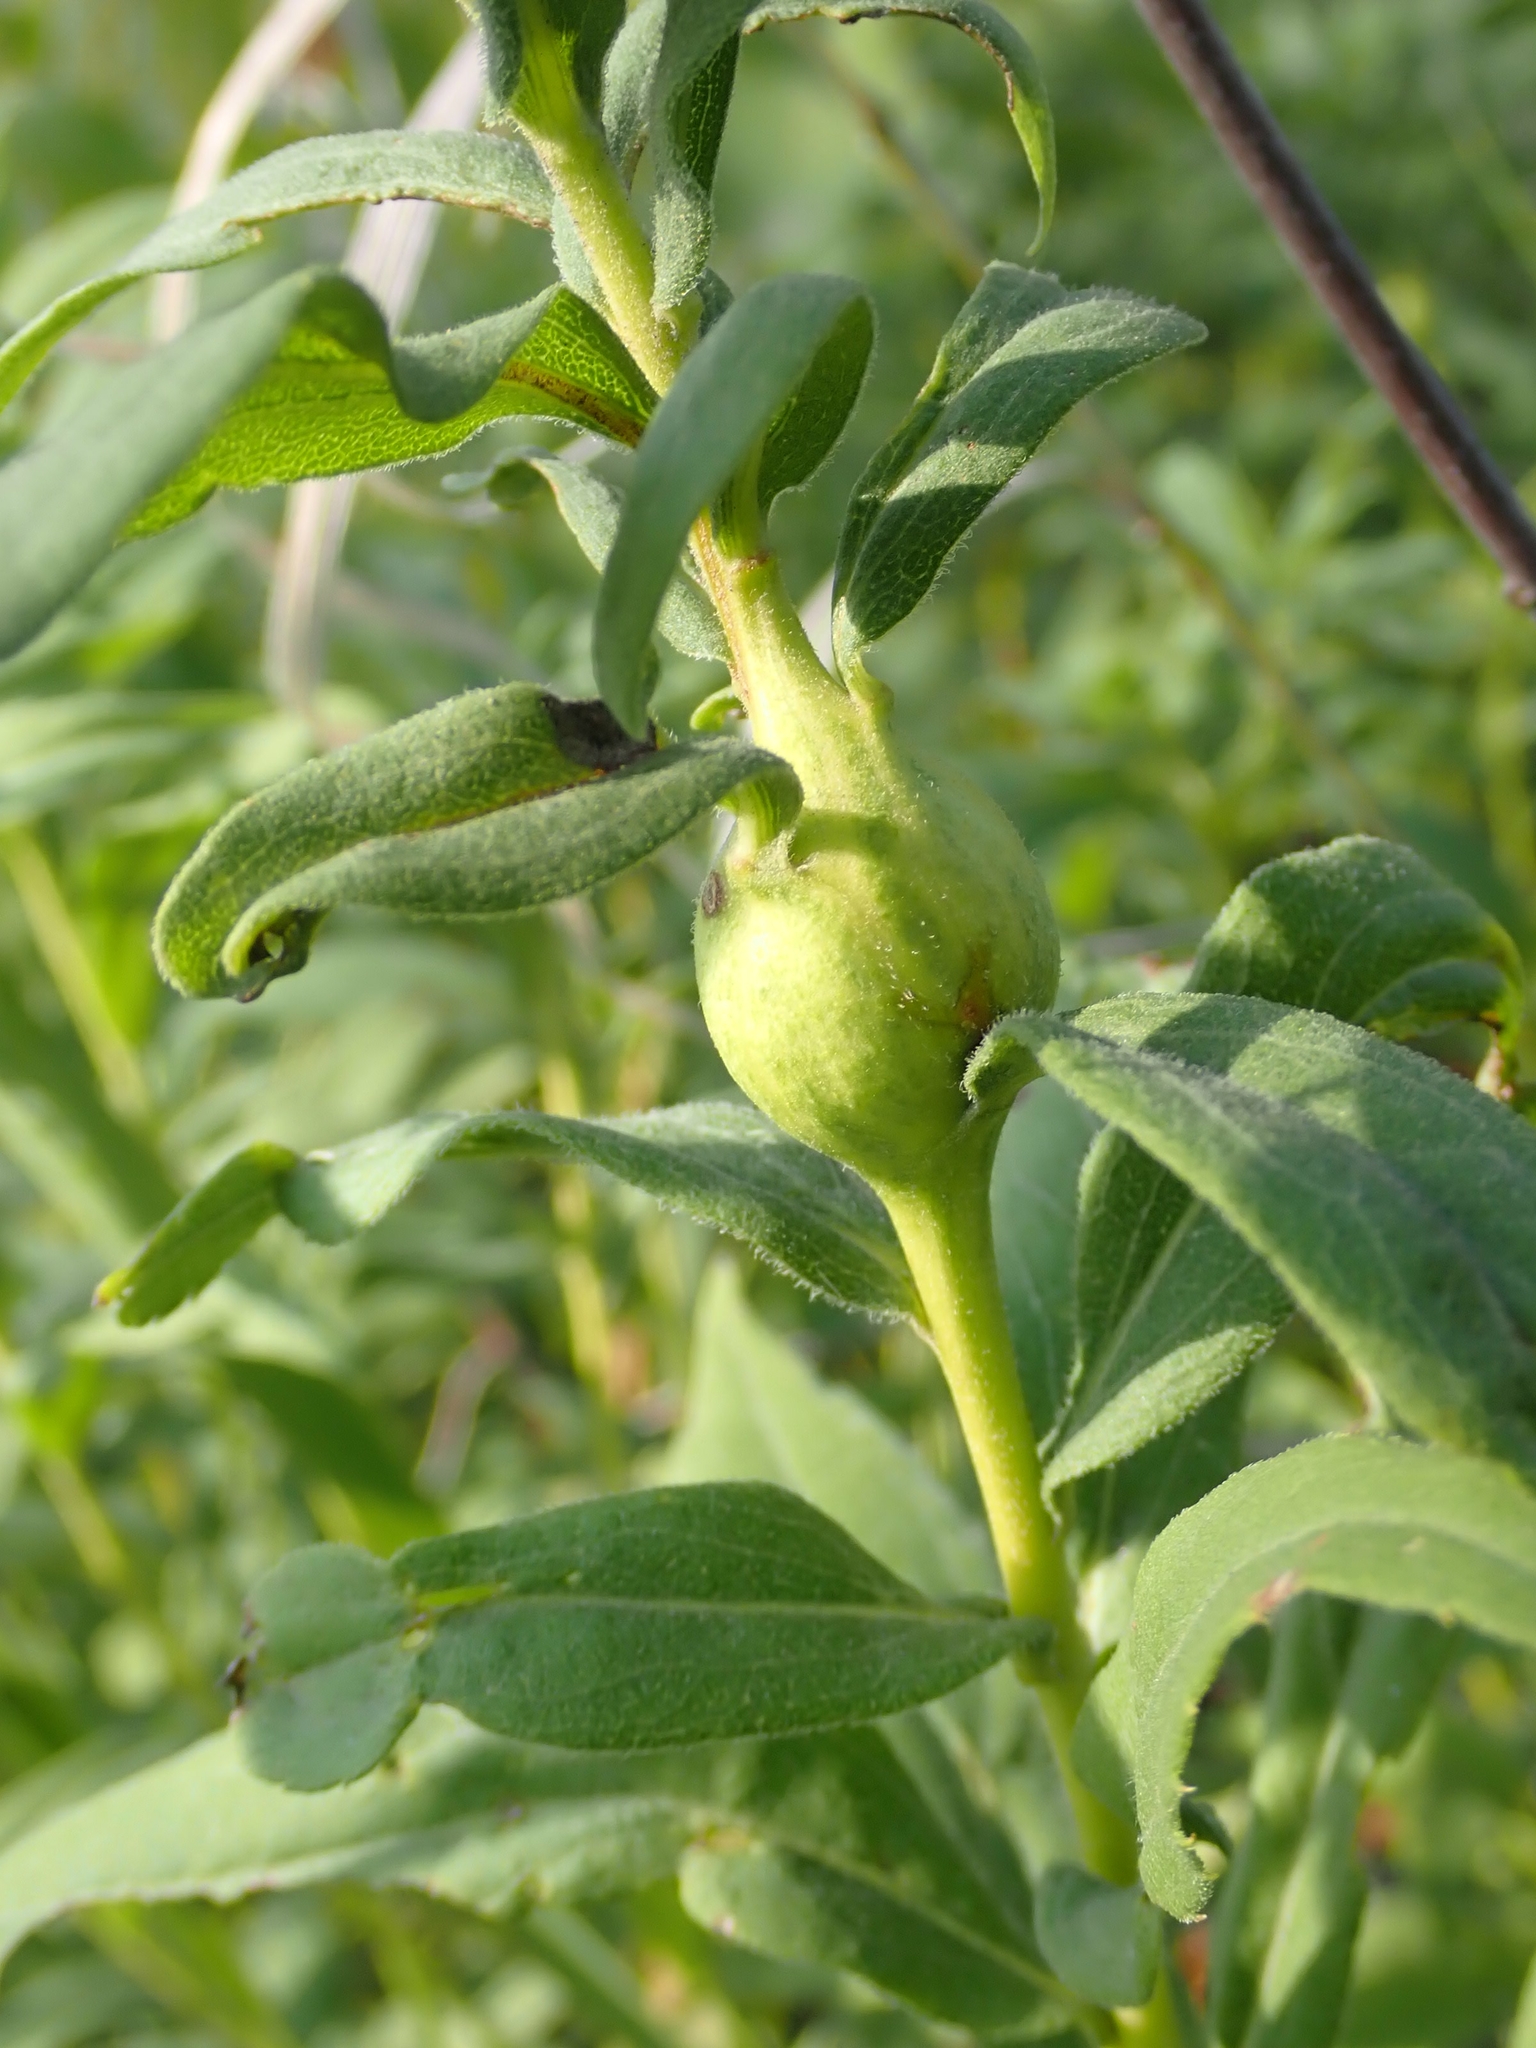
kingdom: Animalia
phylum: Arthropoda
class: Insecta
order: Diptera
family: Tephritidae
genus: Eurosta
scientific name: Eurosta solidaginis
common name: Goldenrod gall fly
